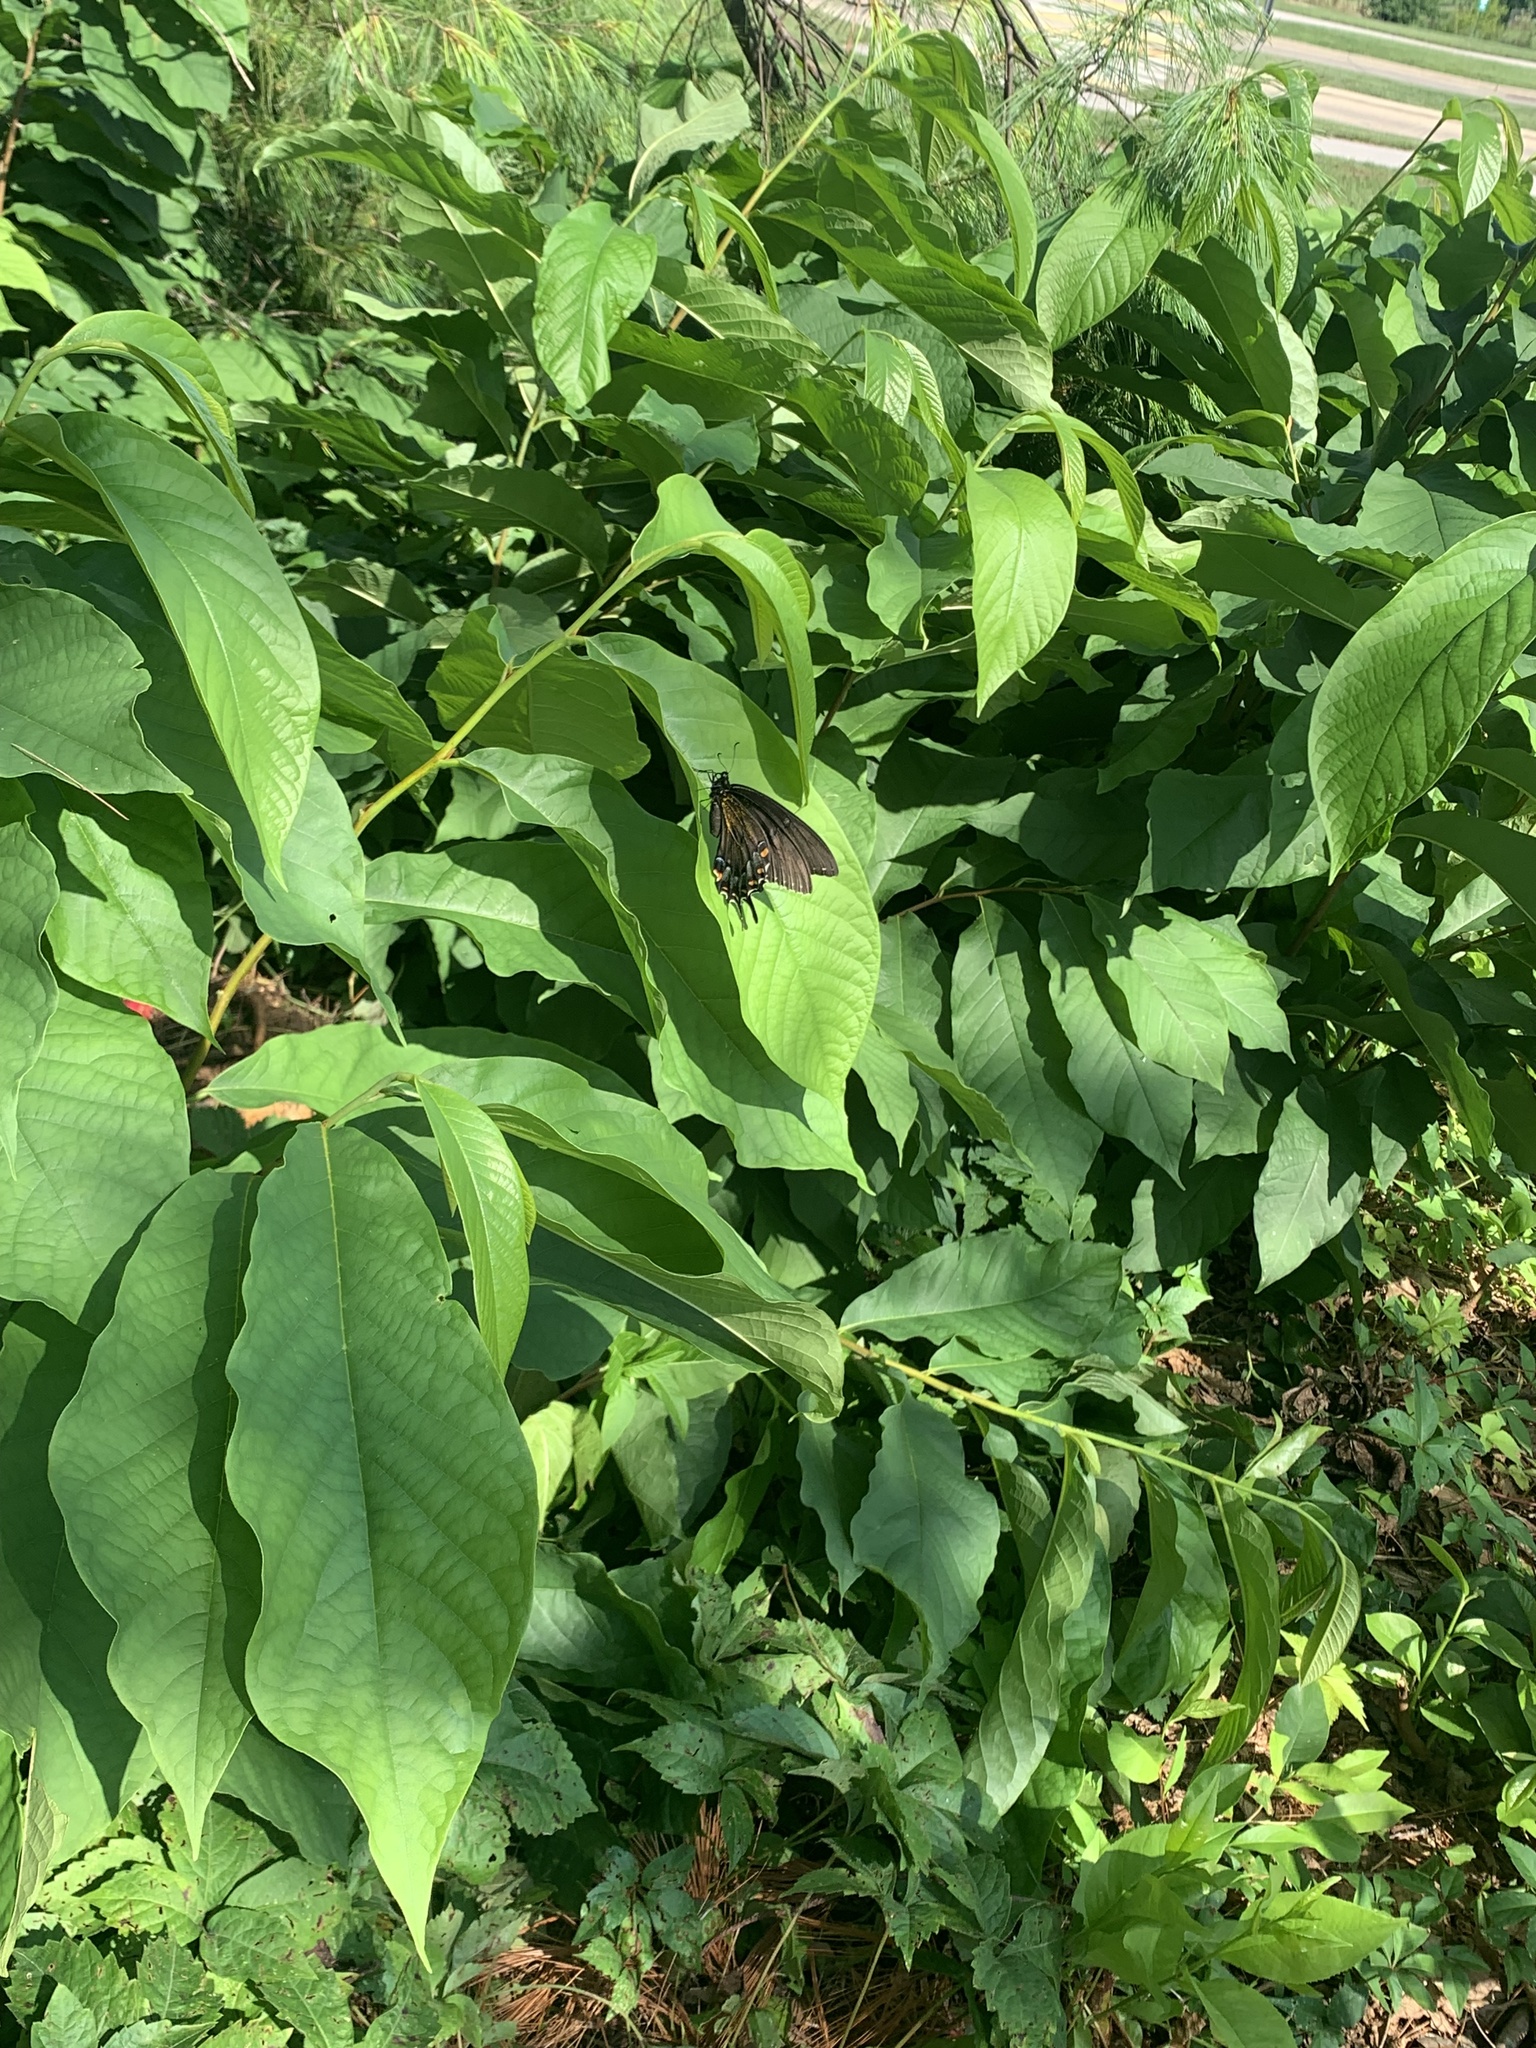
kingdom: Animalia
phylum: Arthropoda
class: Insecta
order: Lepidoptera
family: Papilionidae
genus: Papilio
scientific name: Papilio glaucus
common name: Tiger swallowtail
